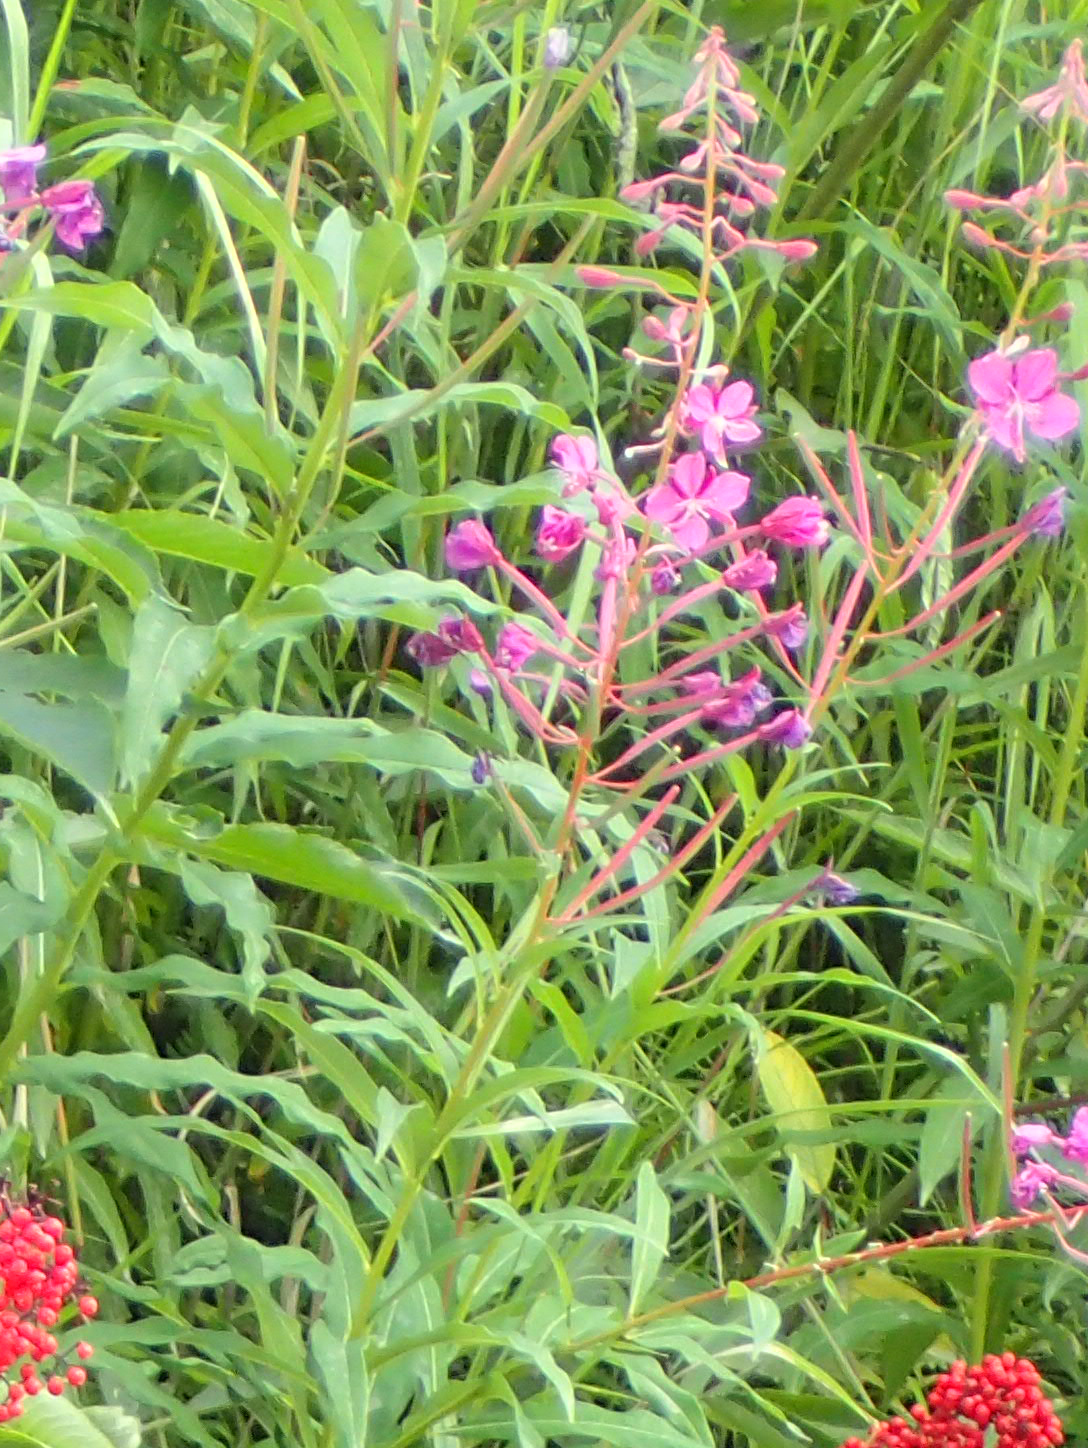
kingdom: Plantae
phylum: Tracheophyta
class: Magnoliopsida
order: Myrtales
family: Onagraceae
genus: Chamaenerion
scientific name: Chamaenerion angustifolium
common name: Fireweed
